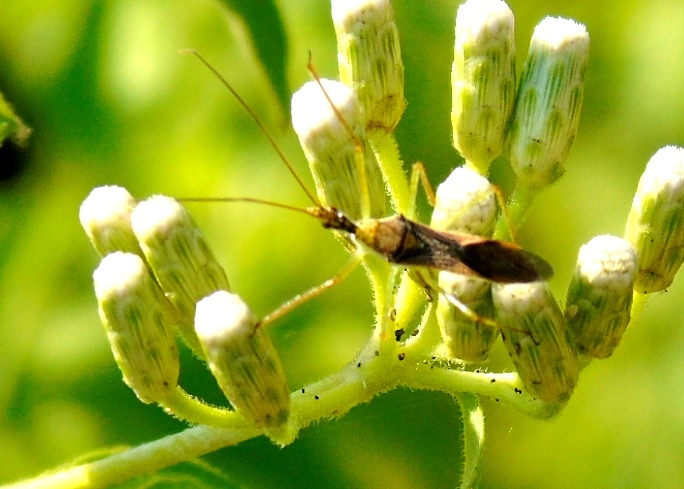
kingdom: Animalia
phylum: Arthropoda
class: Insecta
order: Hemiptera
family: Reduviidae
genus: Zelus
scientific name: Zelus
